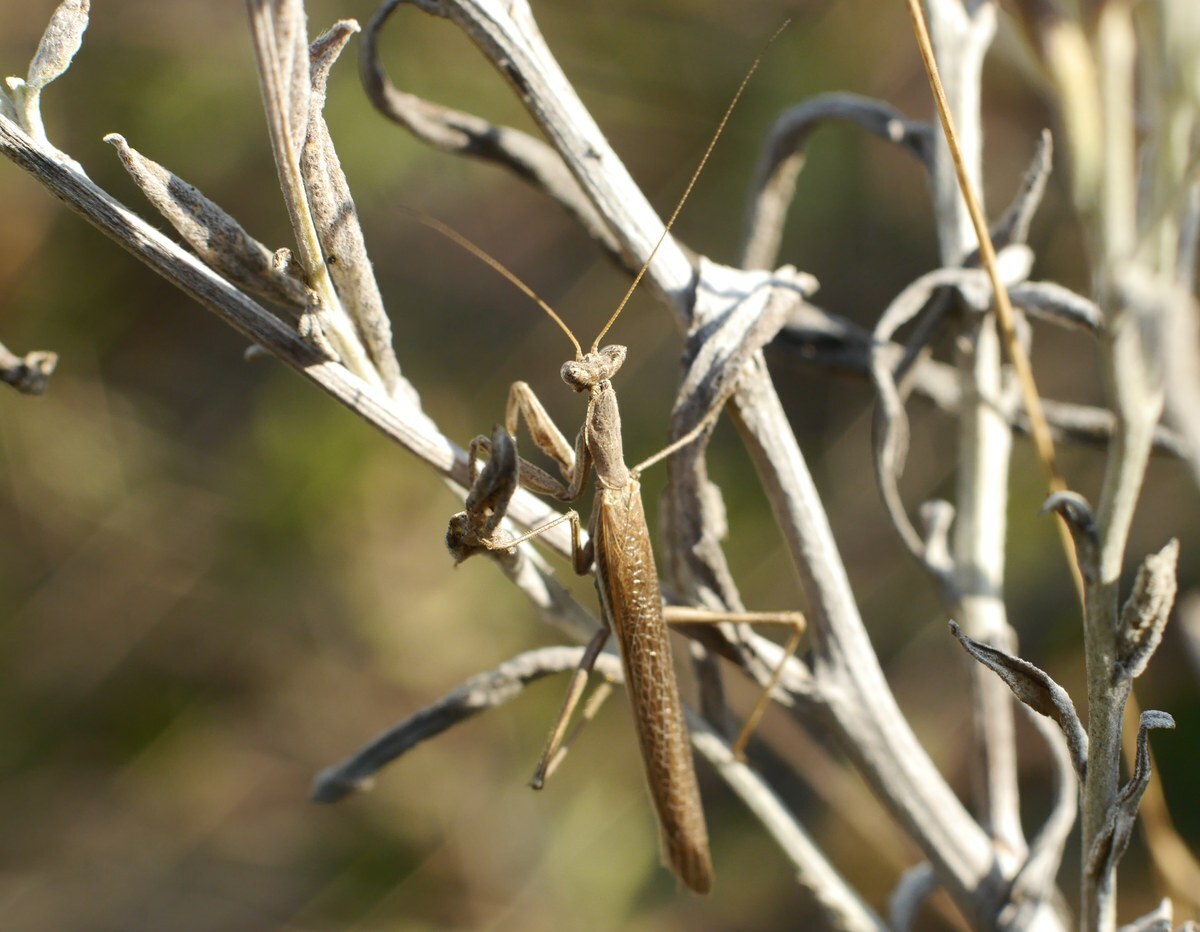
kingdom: Animalia
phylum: Arthropoda
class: Insecta
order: Mantodea
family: Amelidae
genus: Ameles
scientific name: Ameles heldreichi
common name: Heldreich's dwarf mantis
